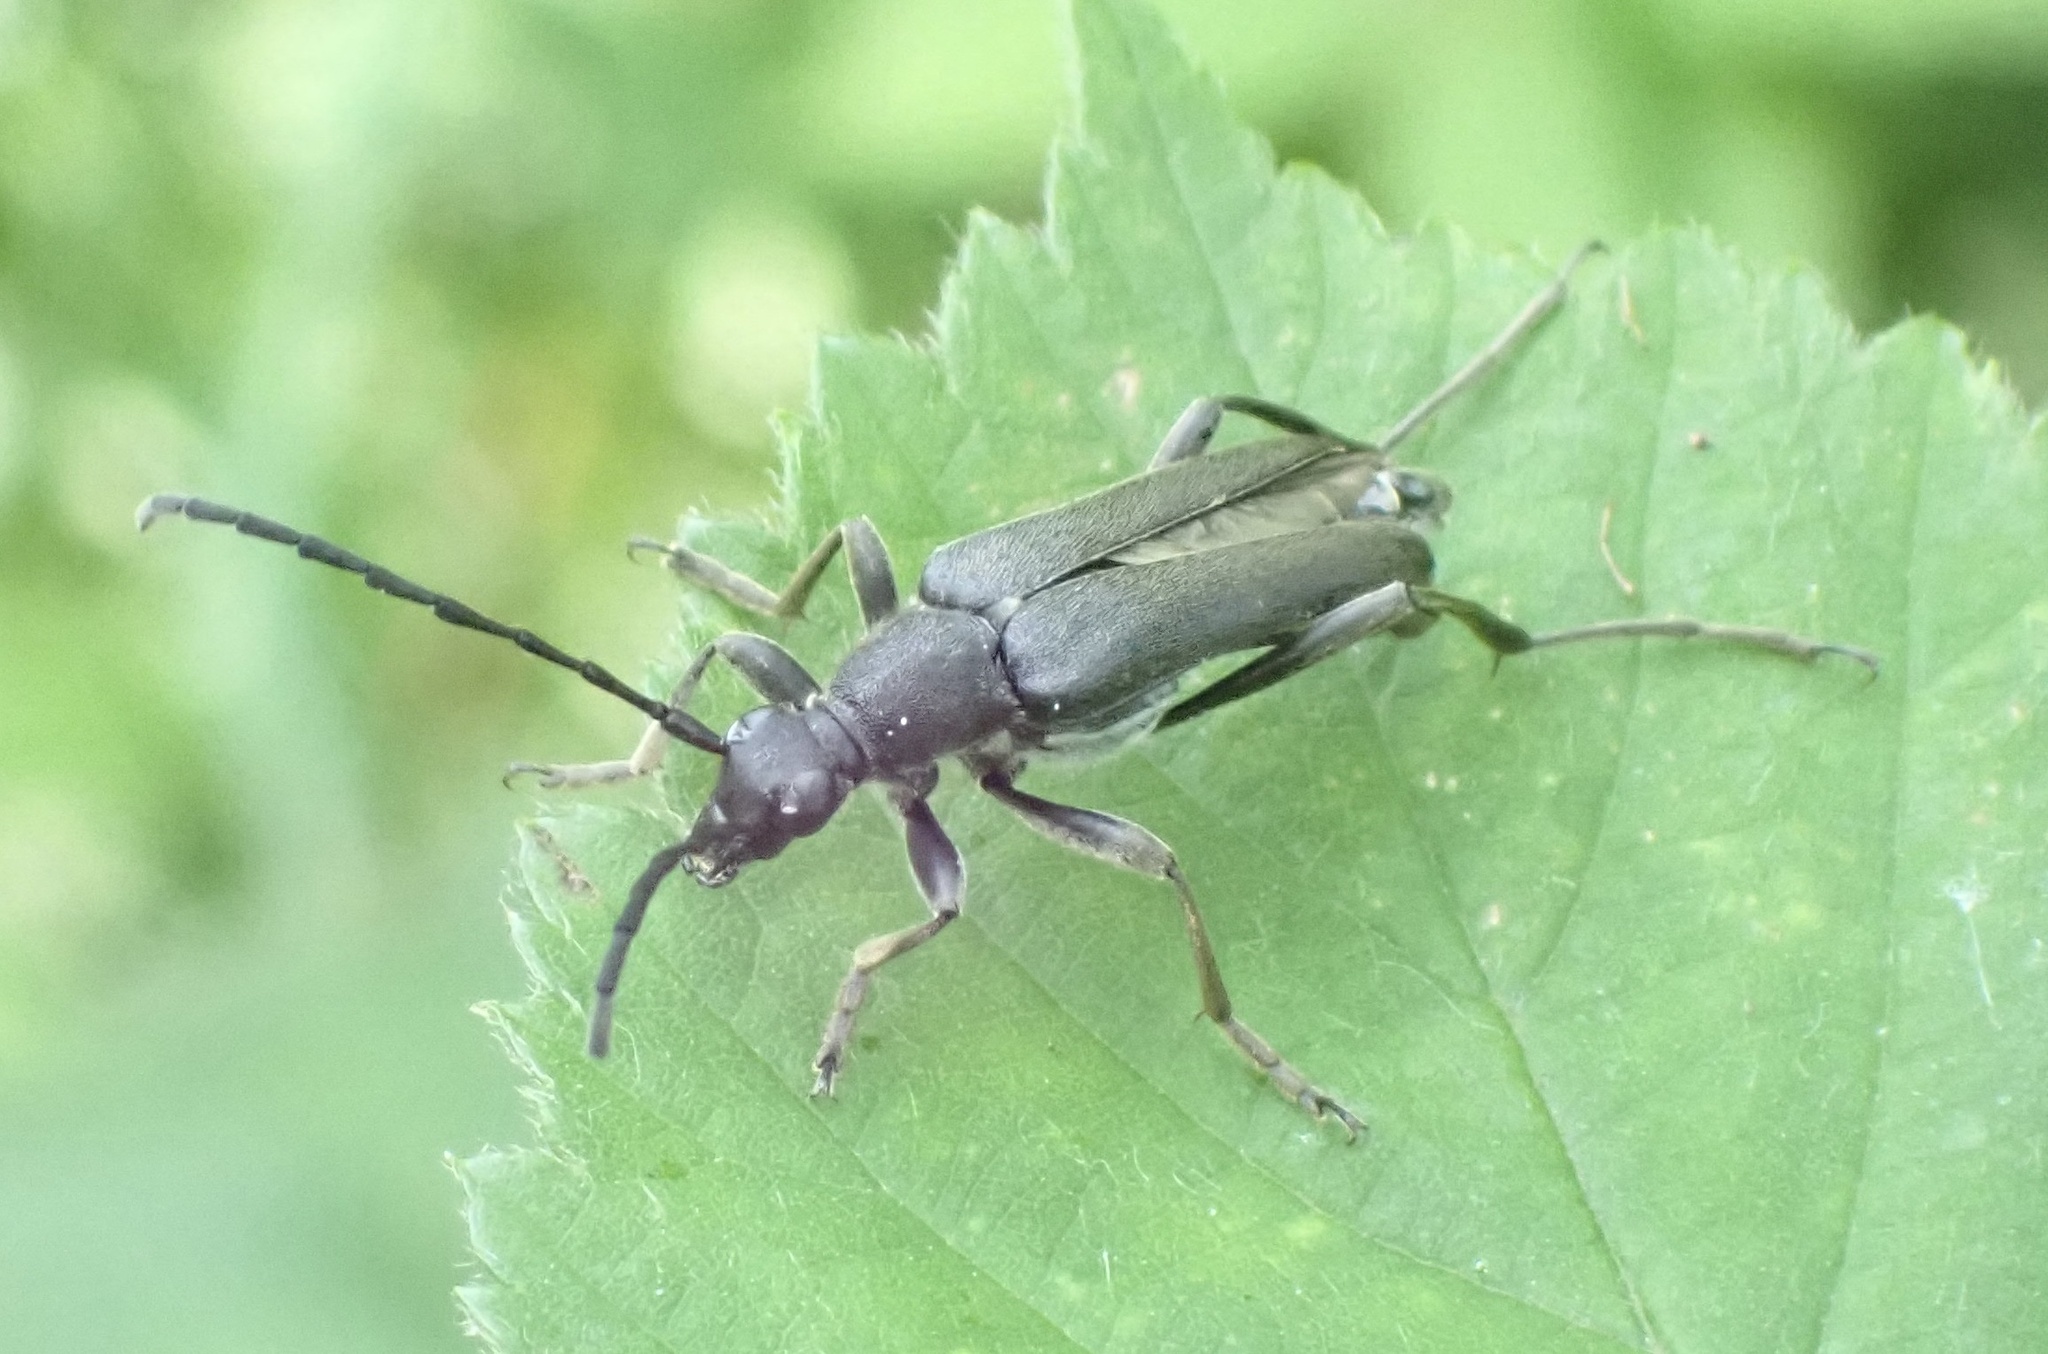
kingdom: Animalia
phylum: Arthropoda
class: Insecta
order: Coleoptera
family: Cerambycidae
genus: Leptura
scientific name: Leptura aethiops
